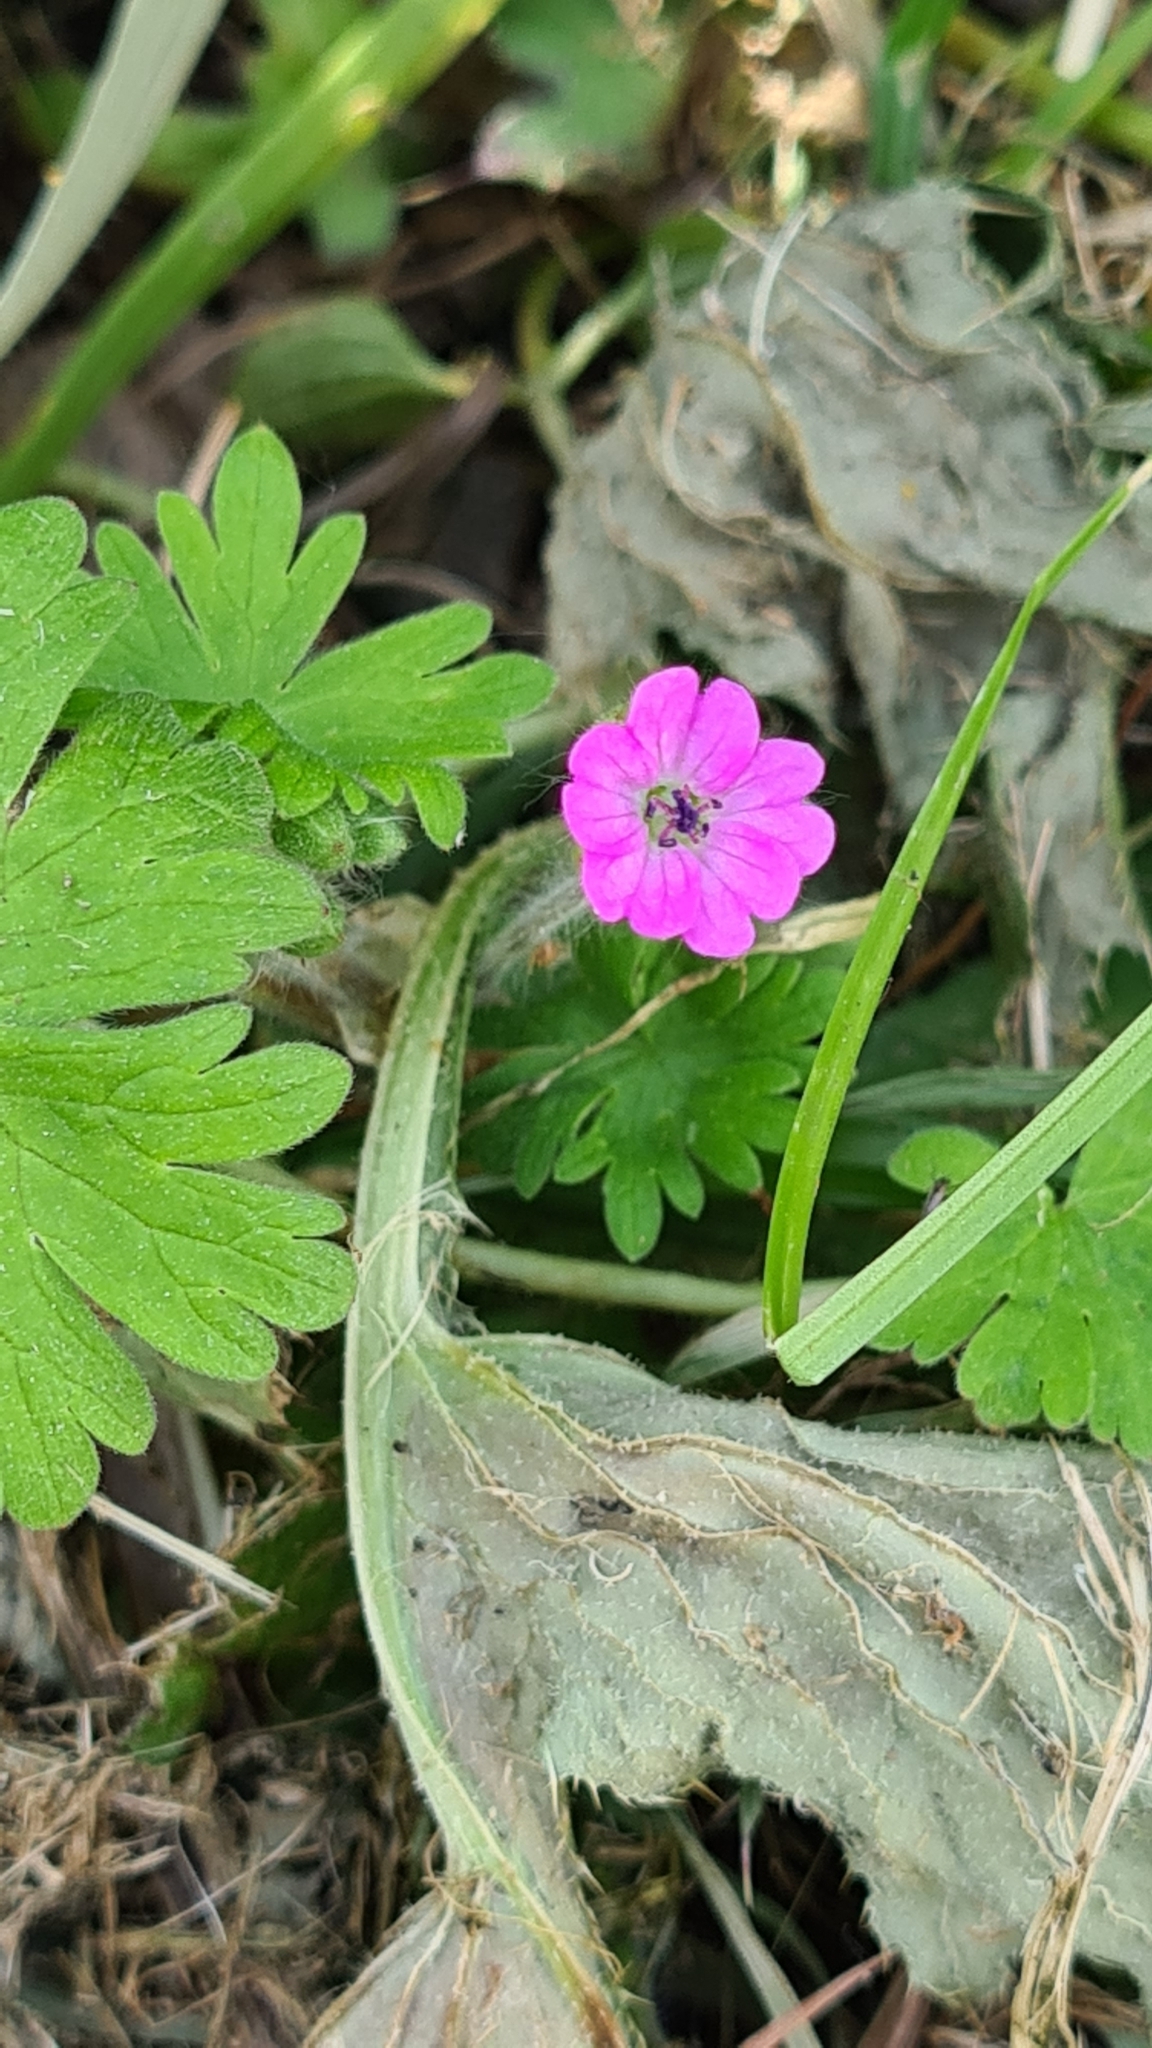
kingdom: Plantae
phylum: Tracheophyta
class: Magnoliopsida
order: Geraniales
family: Geraniaceae
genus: Geranium
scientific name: Geranium molle
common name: Dove's-foot crane's-bill
